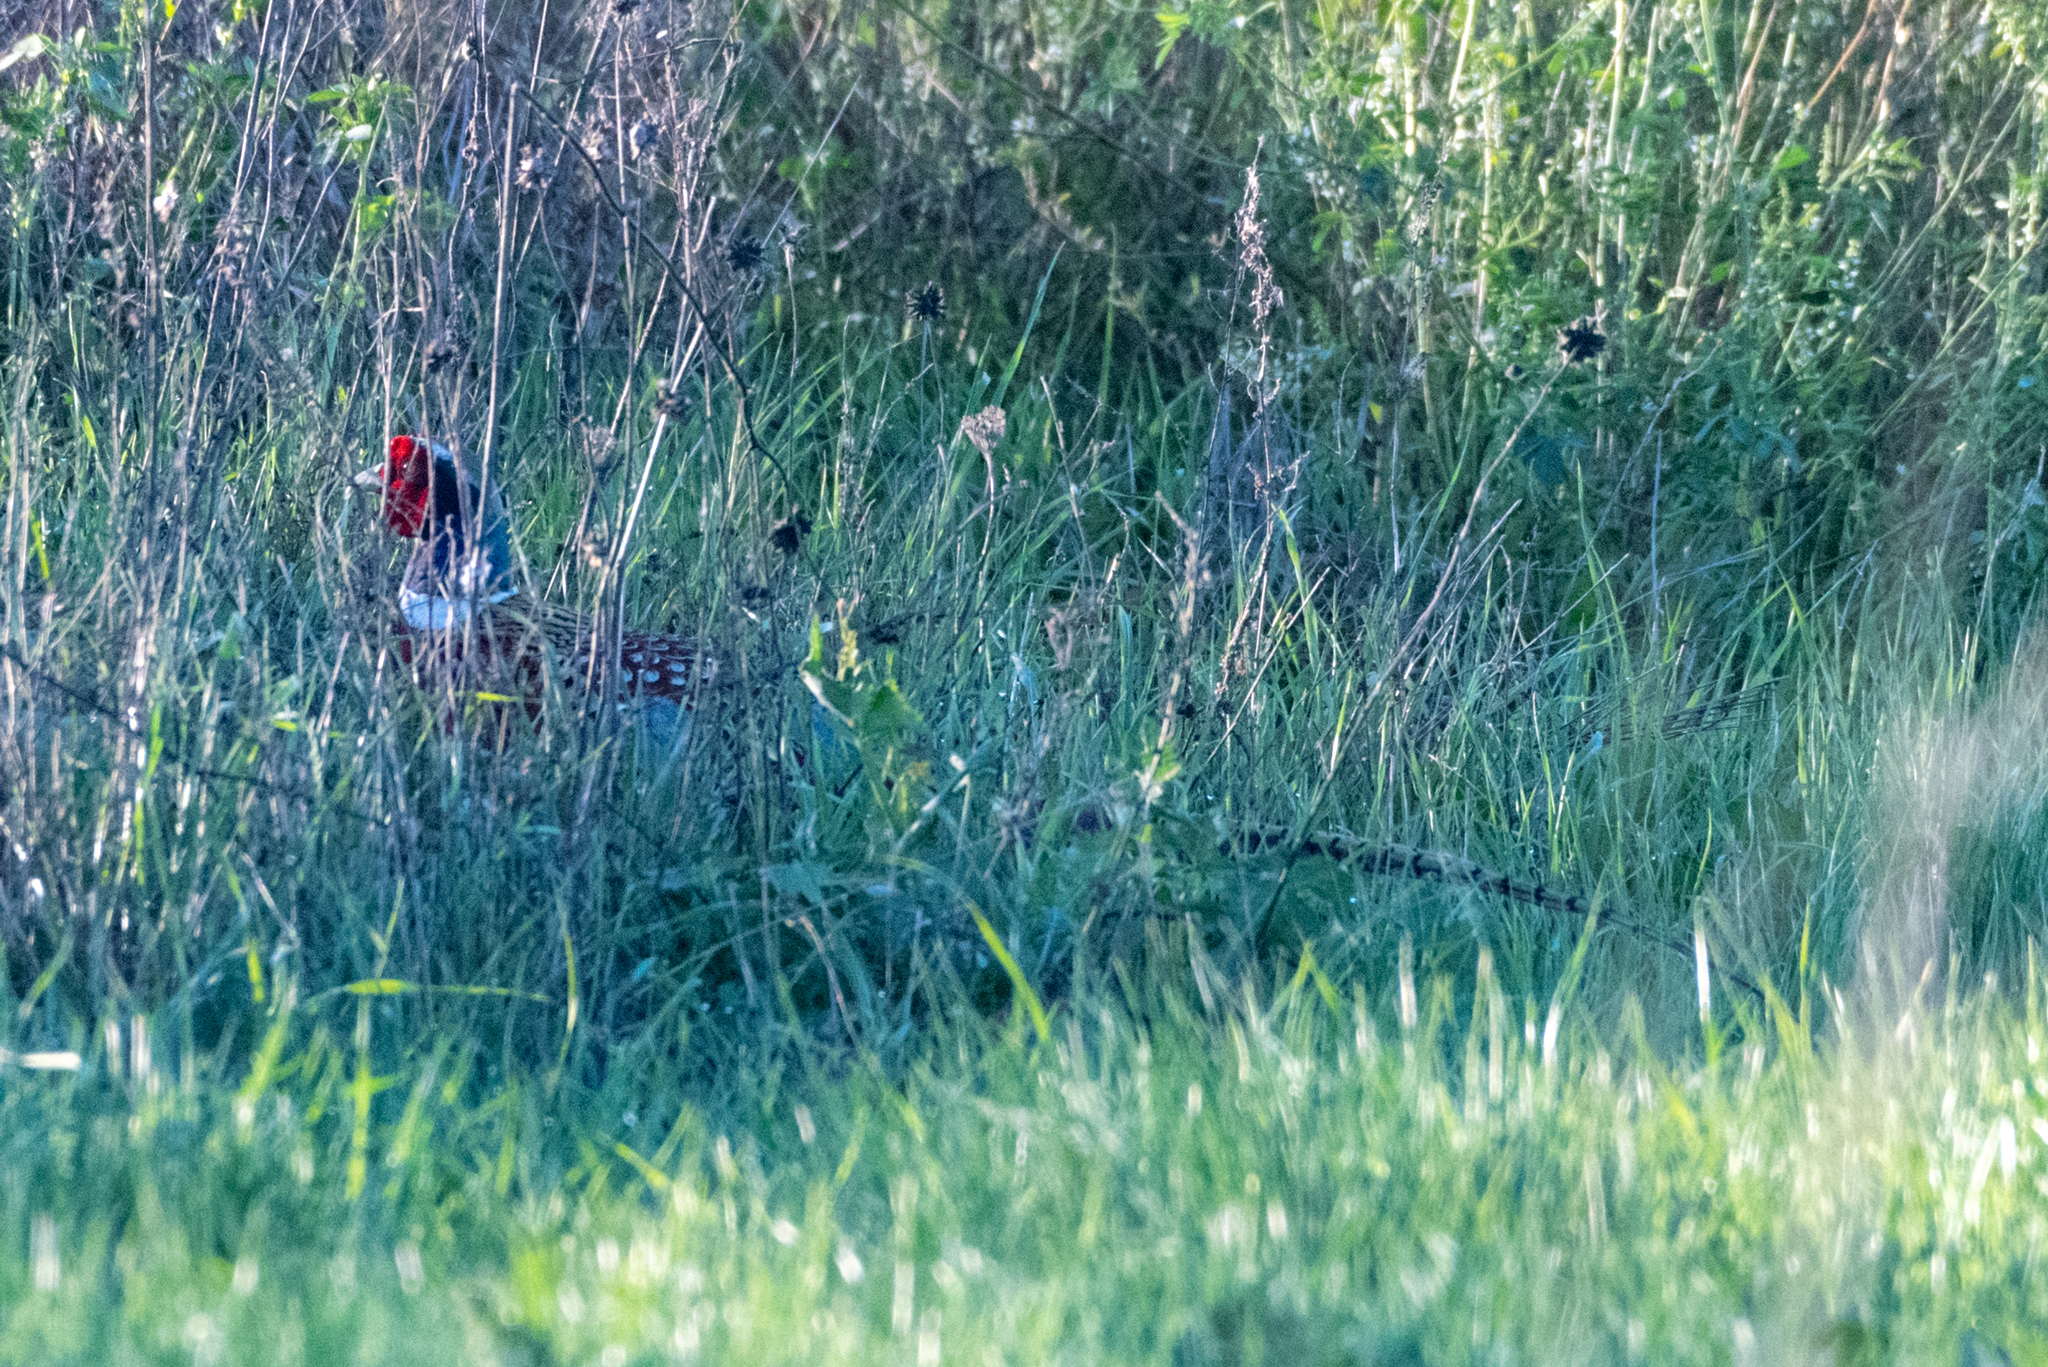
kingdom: Animalia
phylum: Chordata
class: Aves
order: Galliformes
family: Phasianidae
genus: Phasianus
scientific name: Phasianus colchicus
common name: Common pheasant
